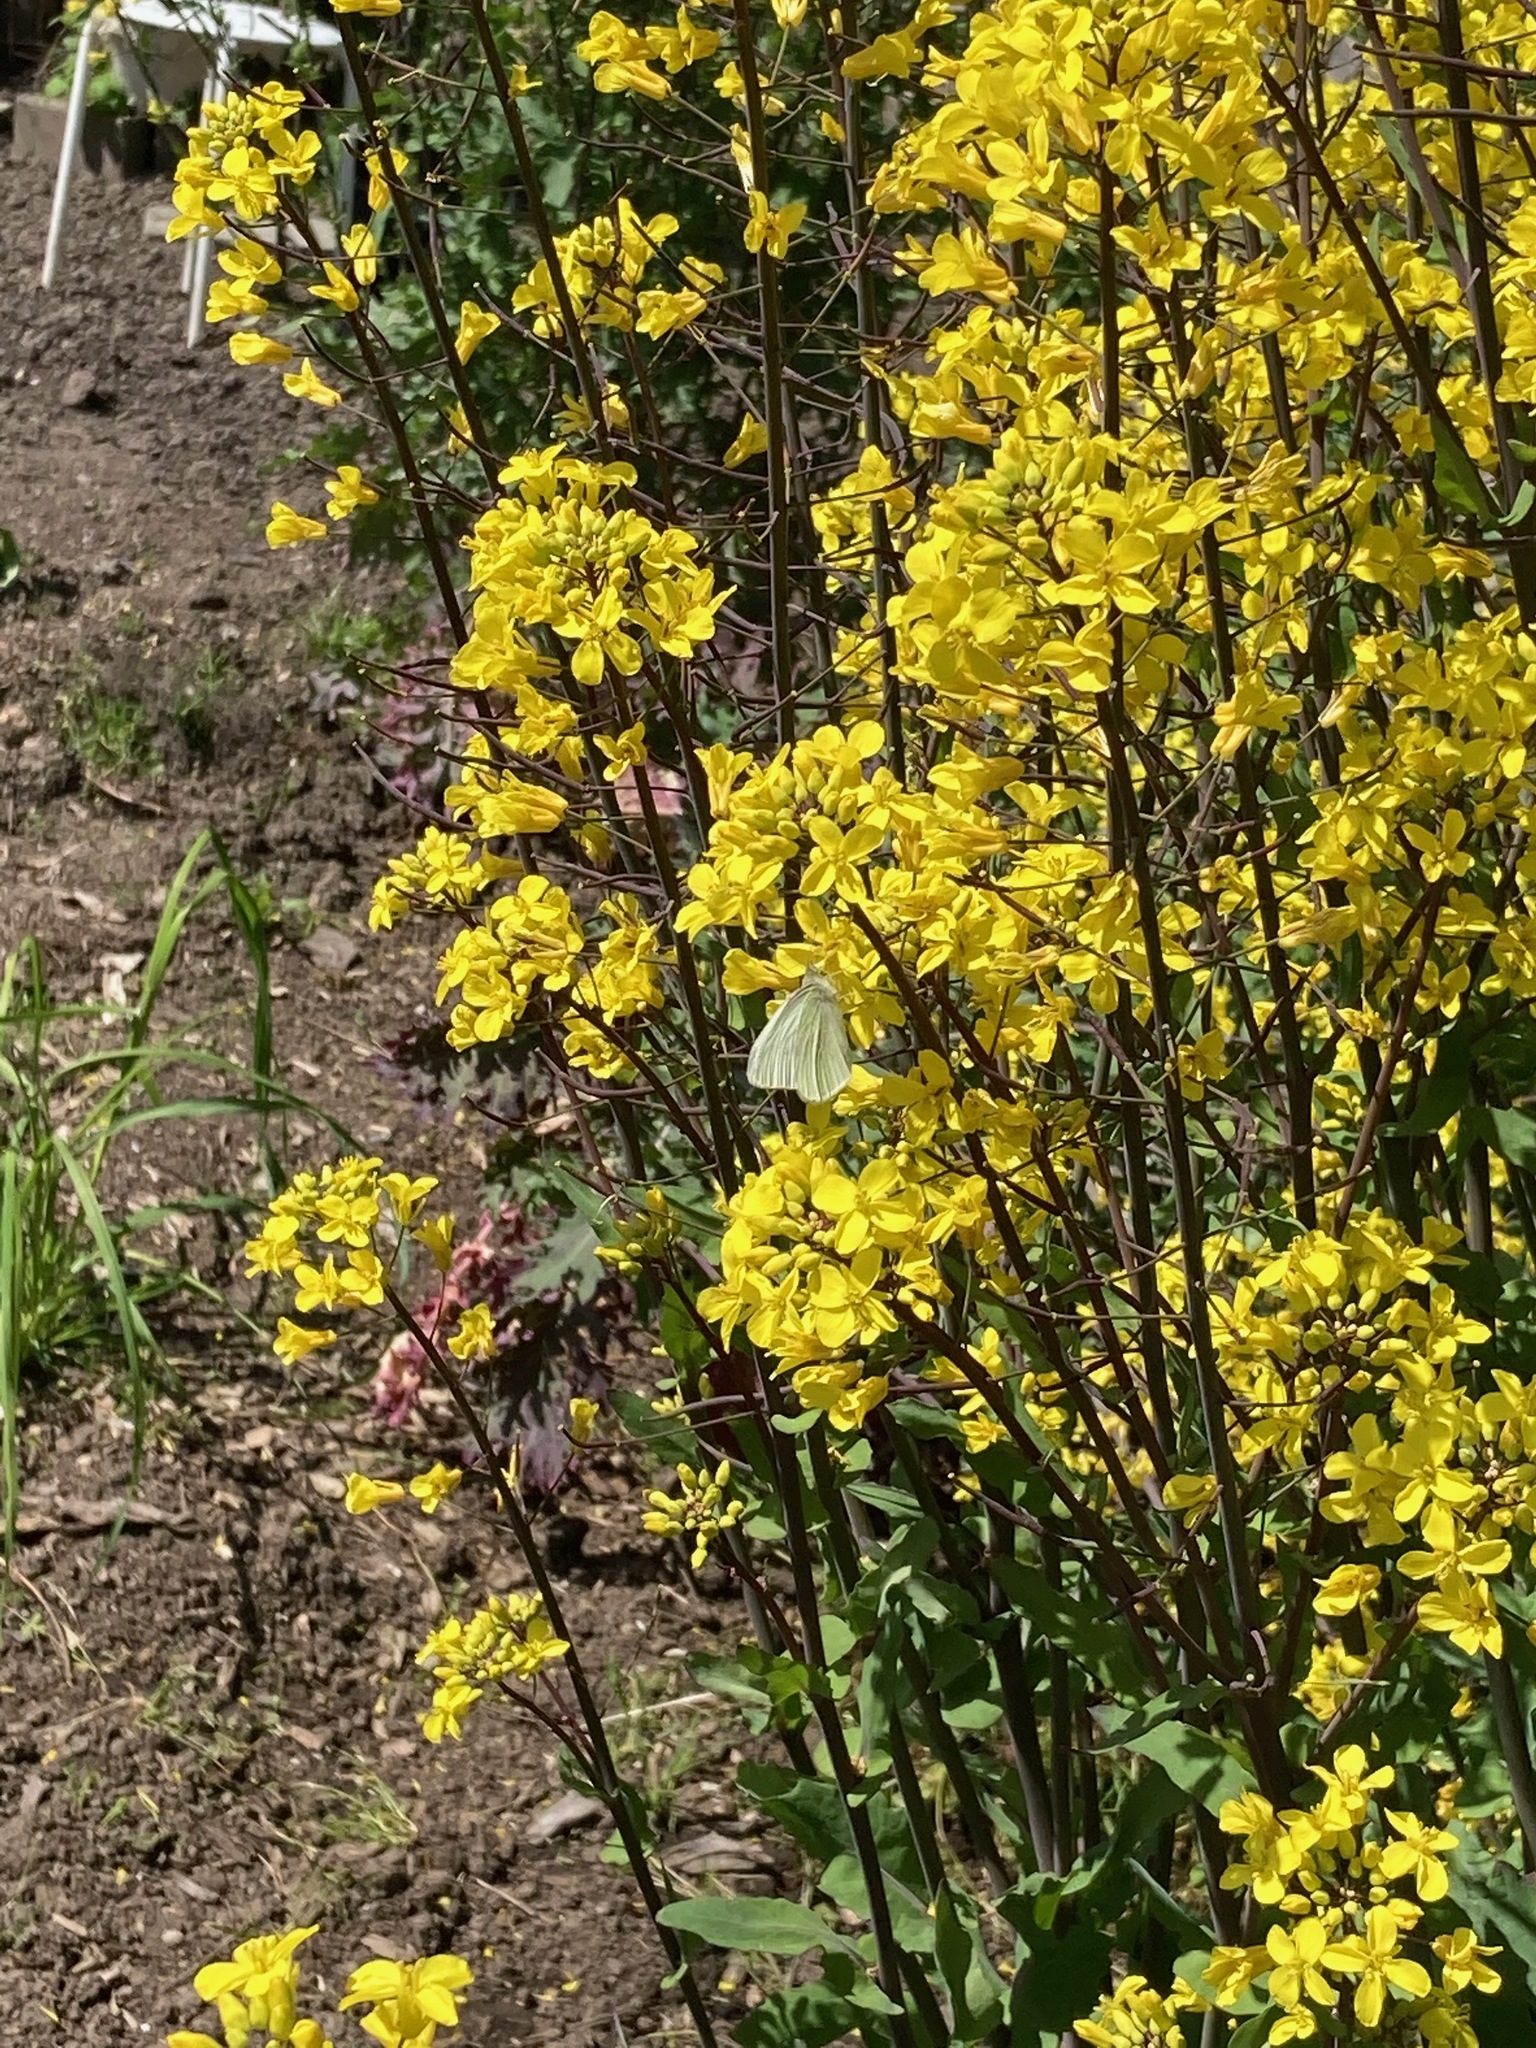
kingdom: Animalia
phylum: Arthropoda
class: Insecta
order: Lepidoptera
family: Pieridae
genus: Pieris
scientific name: Pieris rapae
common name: Small white
